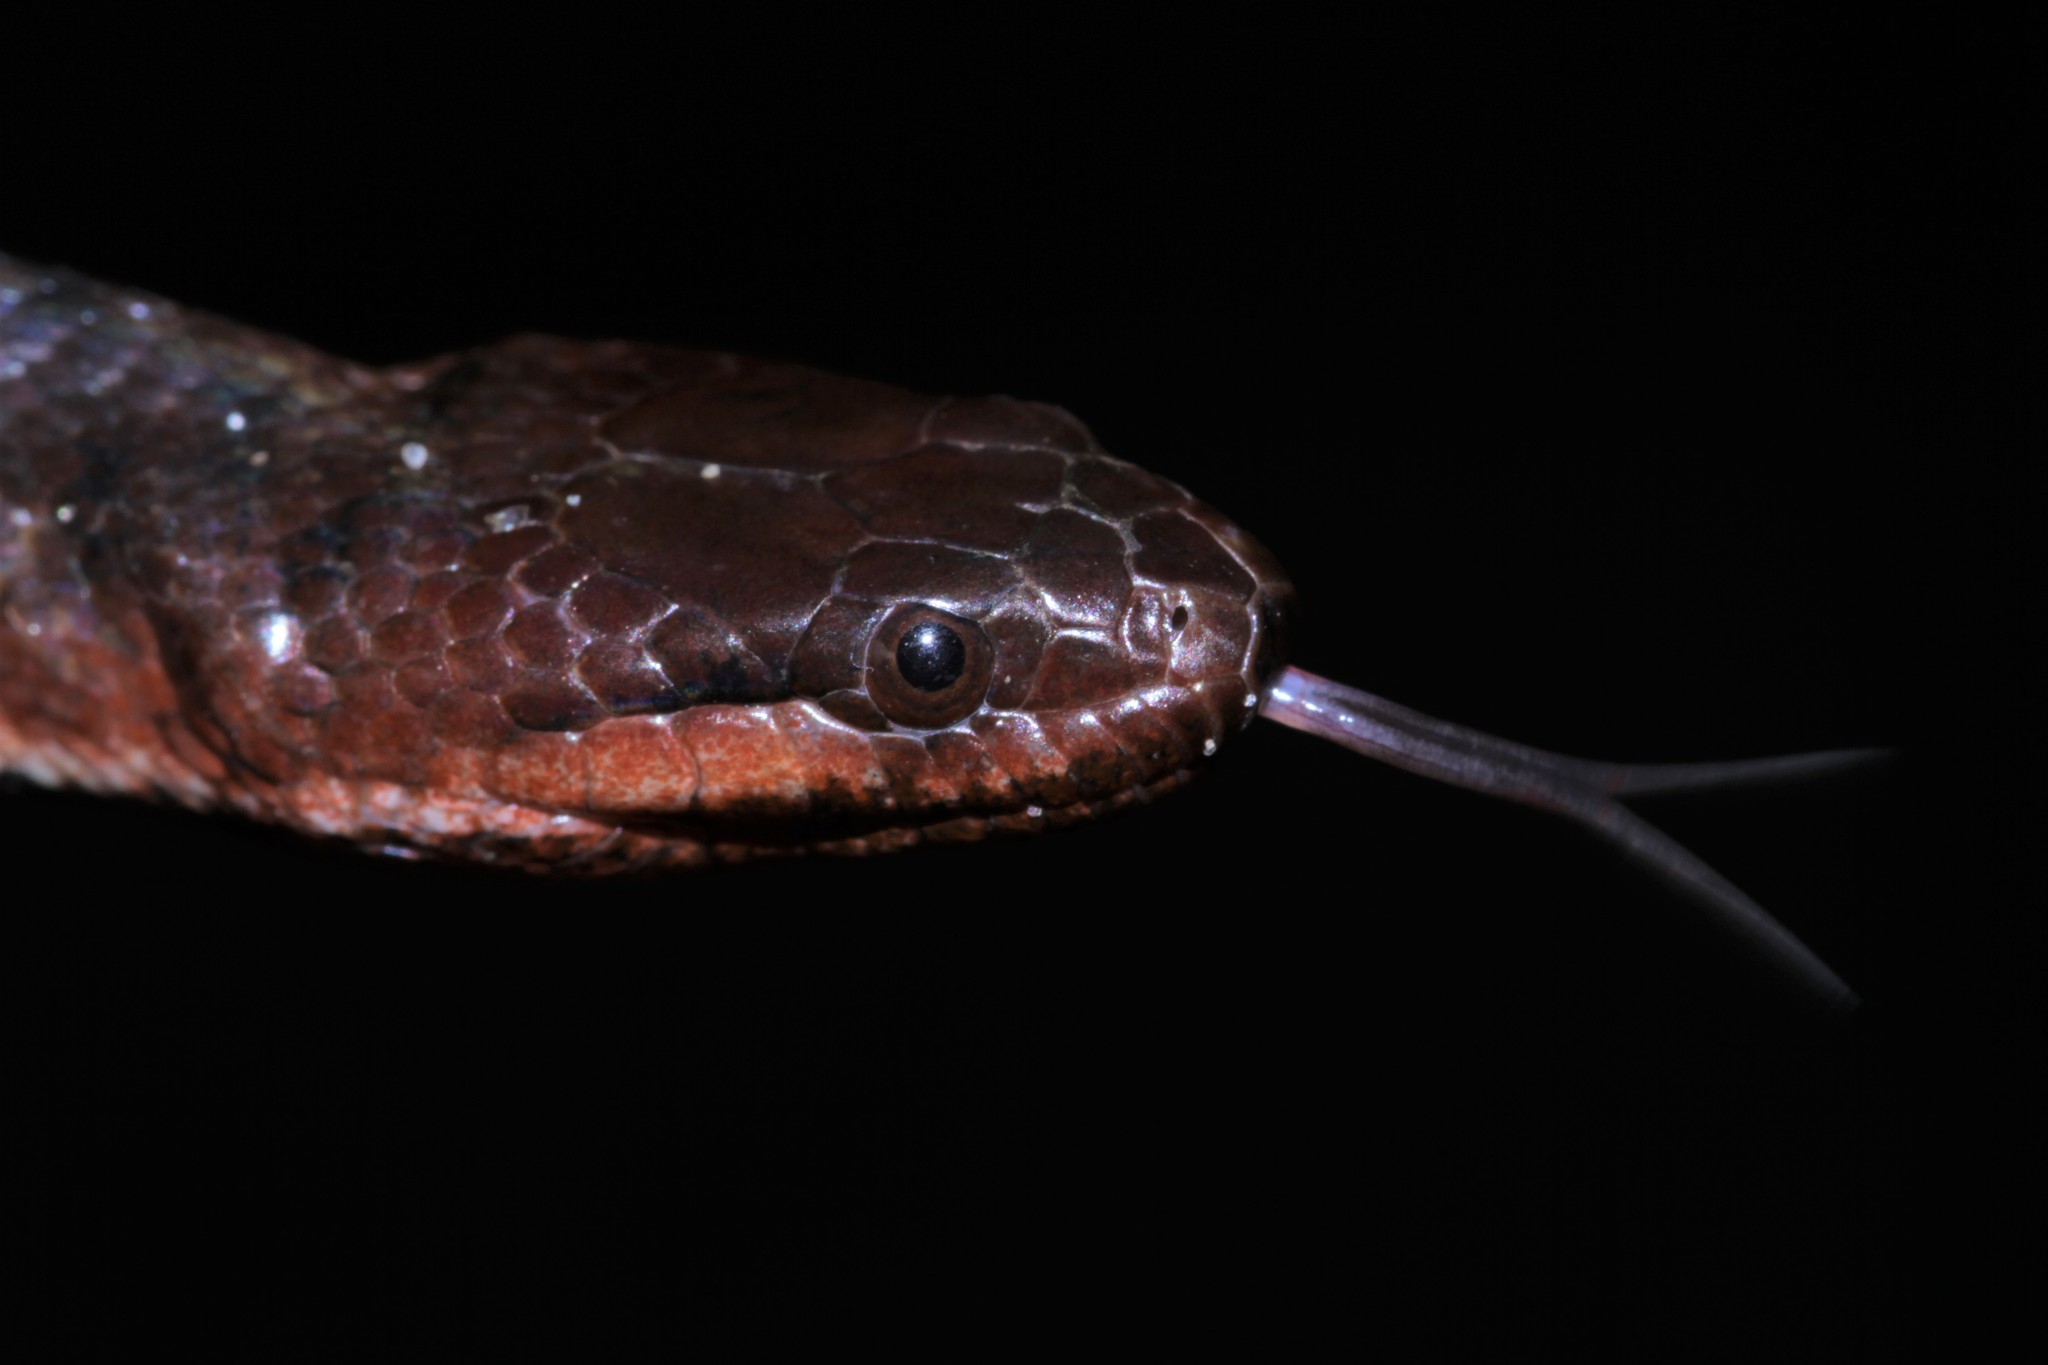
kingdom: Animalia
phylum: Chordata
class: Squamata
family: Colubridae
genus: Hydraethiops
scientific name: Hydraethiops melanogaster
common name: Blackbelly snake
